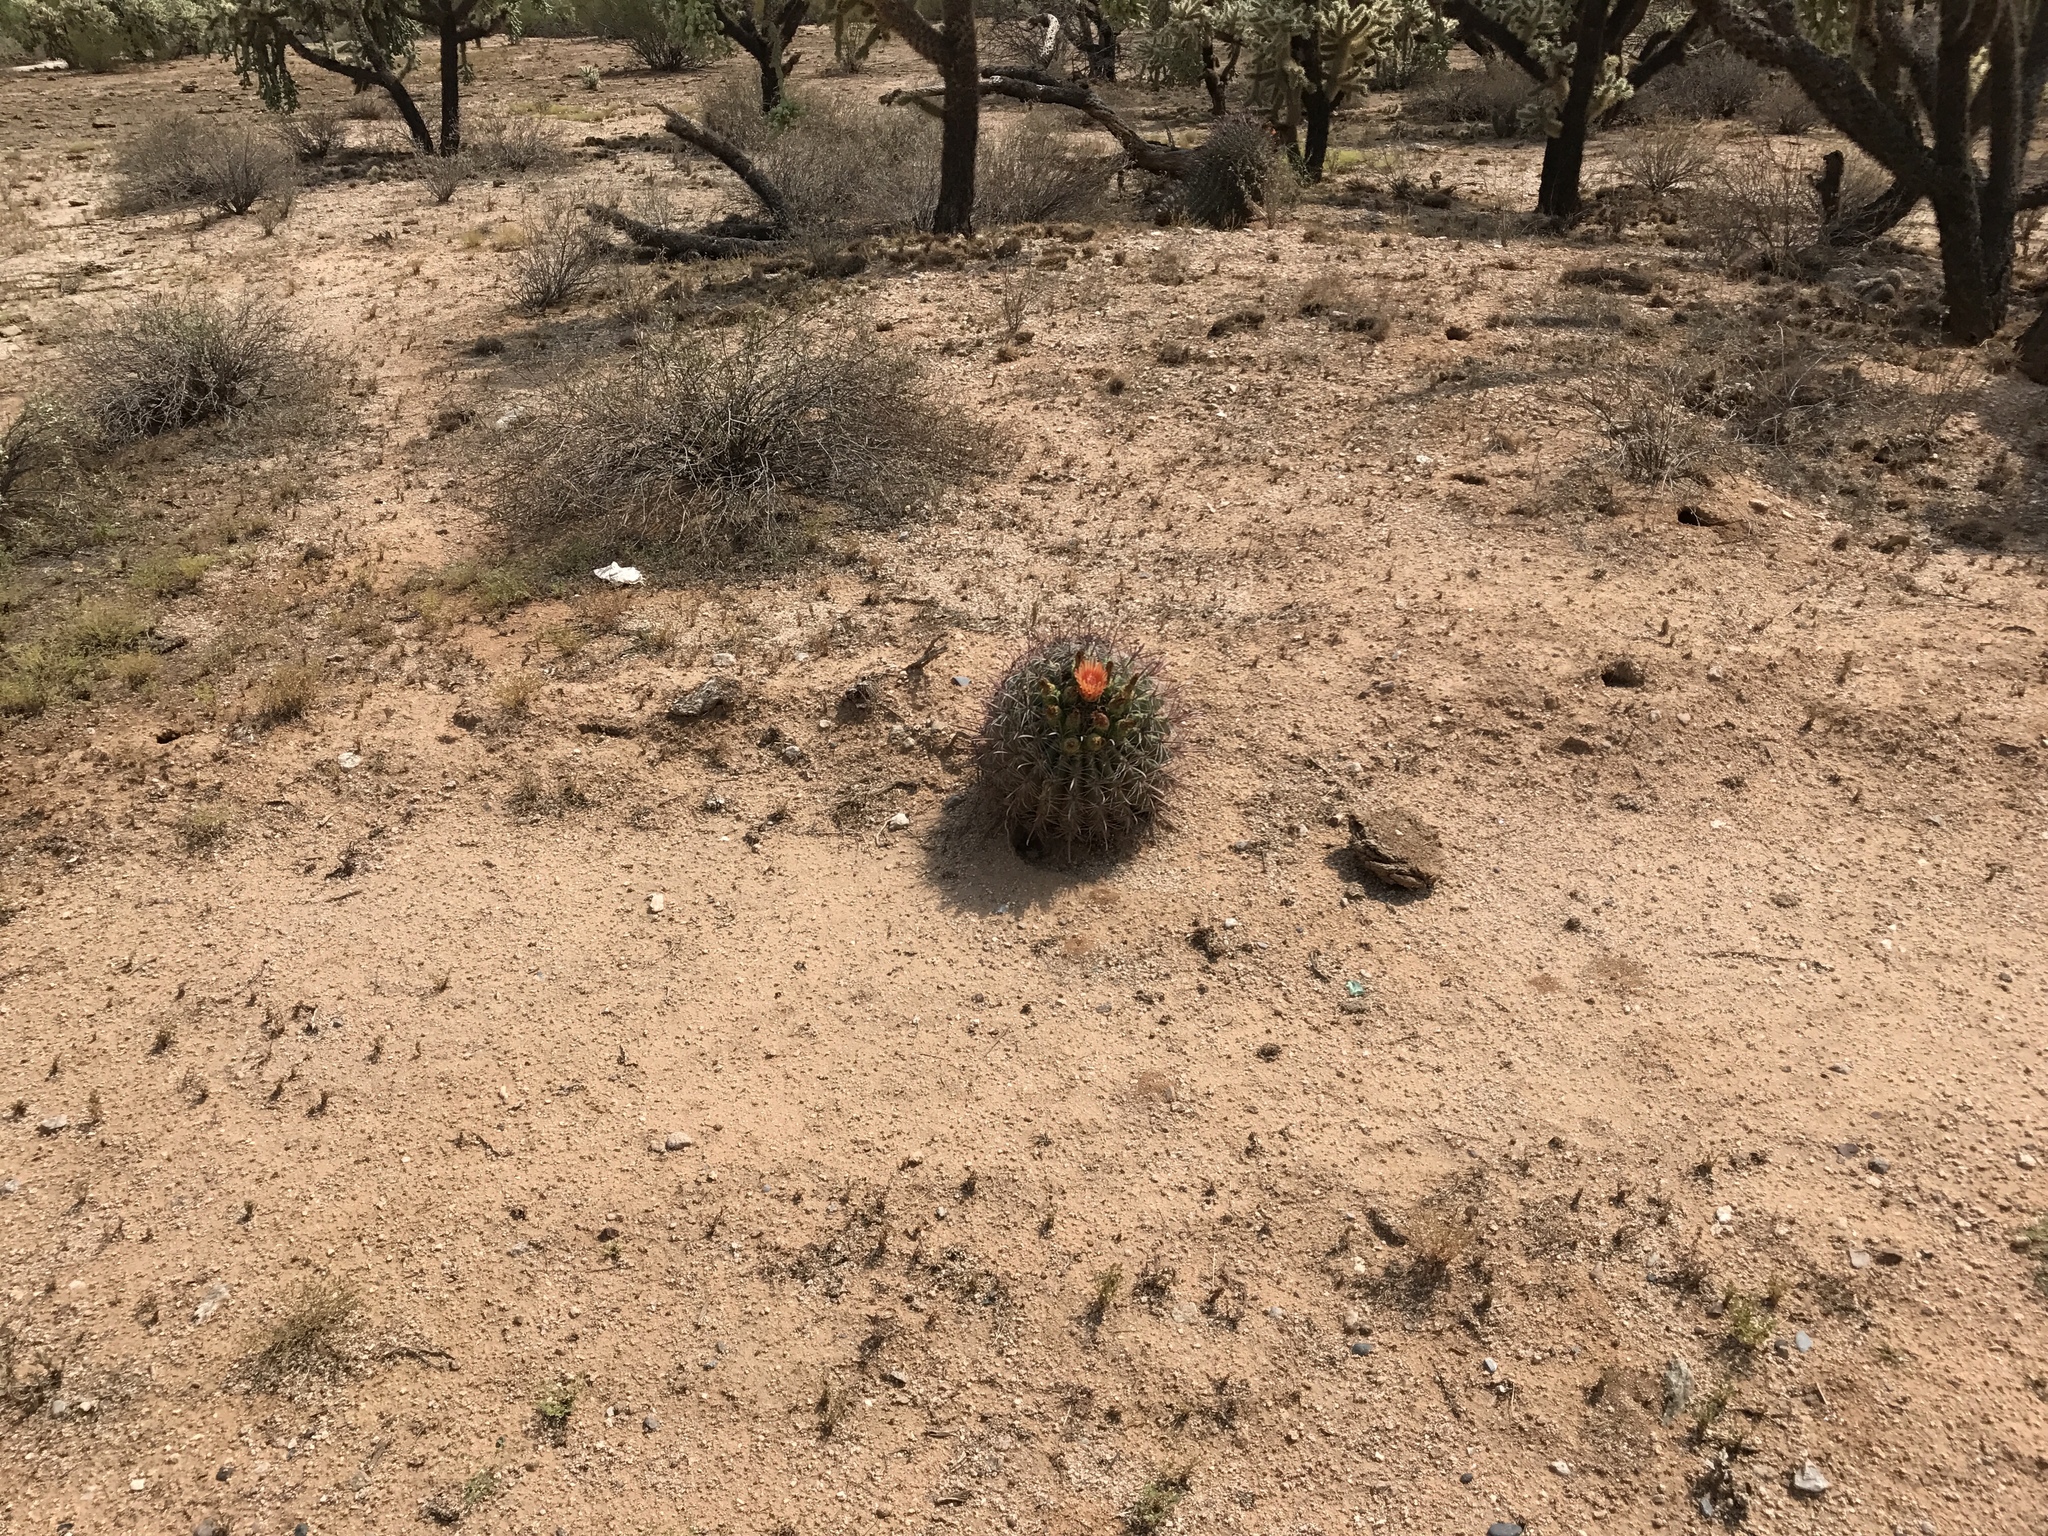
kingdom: Plantae
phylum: Tracheophyta
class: Magnoliopsida
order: Caryophyllales
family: Cactaceae
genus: Ferocactus
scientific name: Ferocactus wislizeni
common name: Candy barrel cactus
